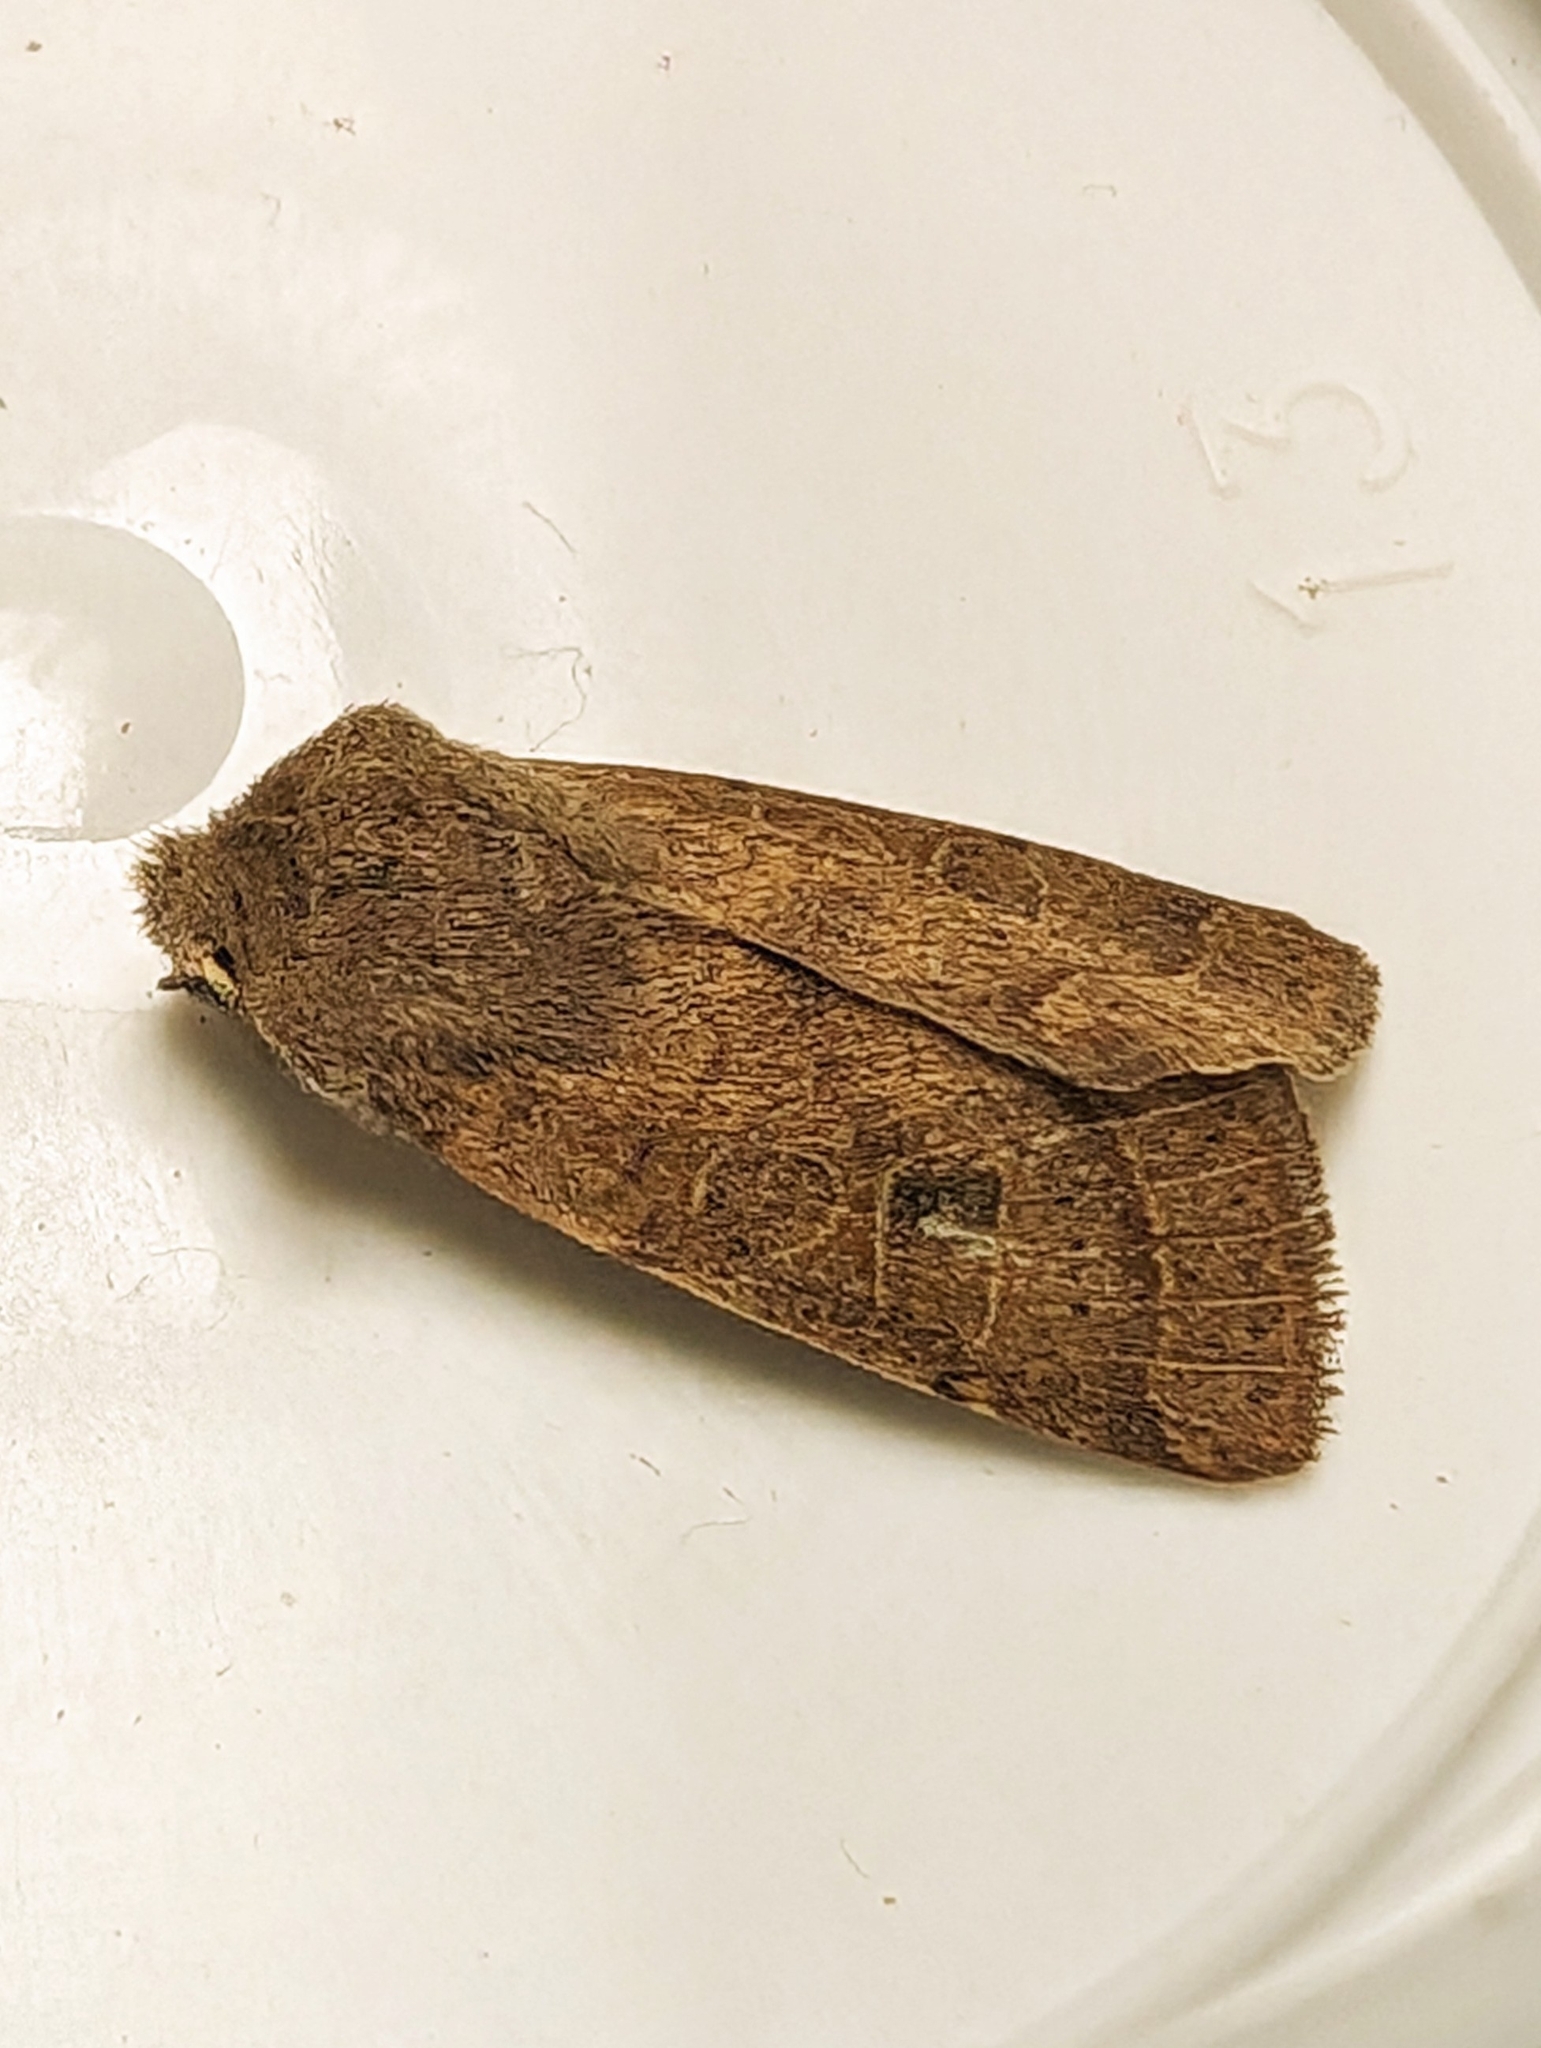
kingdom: Animalia
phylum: Arthropoda
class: Insecta
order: Lepidoptera
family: Noctuidae
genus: Orthosia
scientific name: Orthosia cerasi
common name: Common quaker
